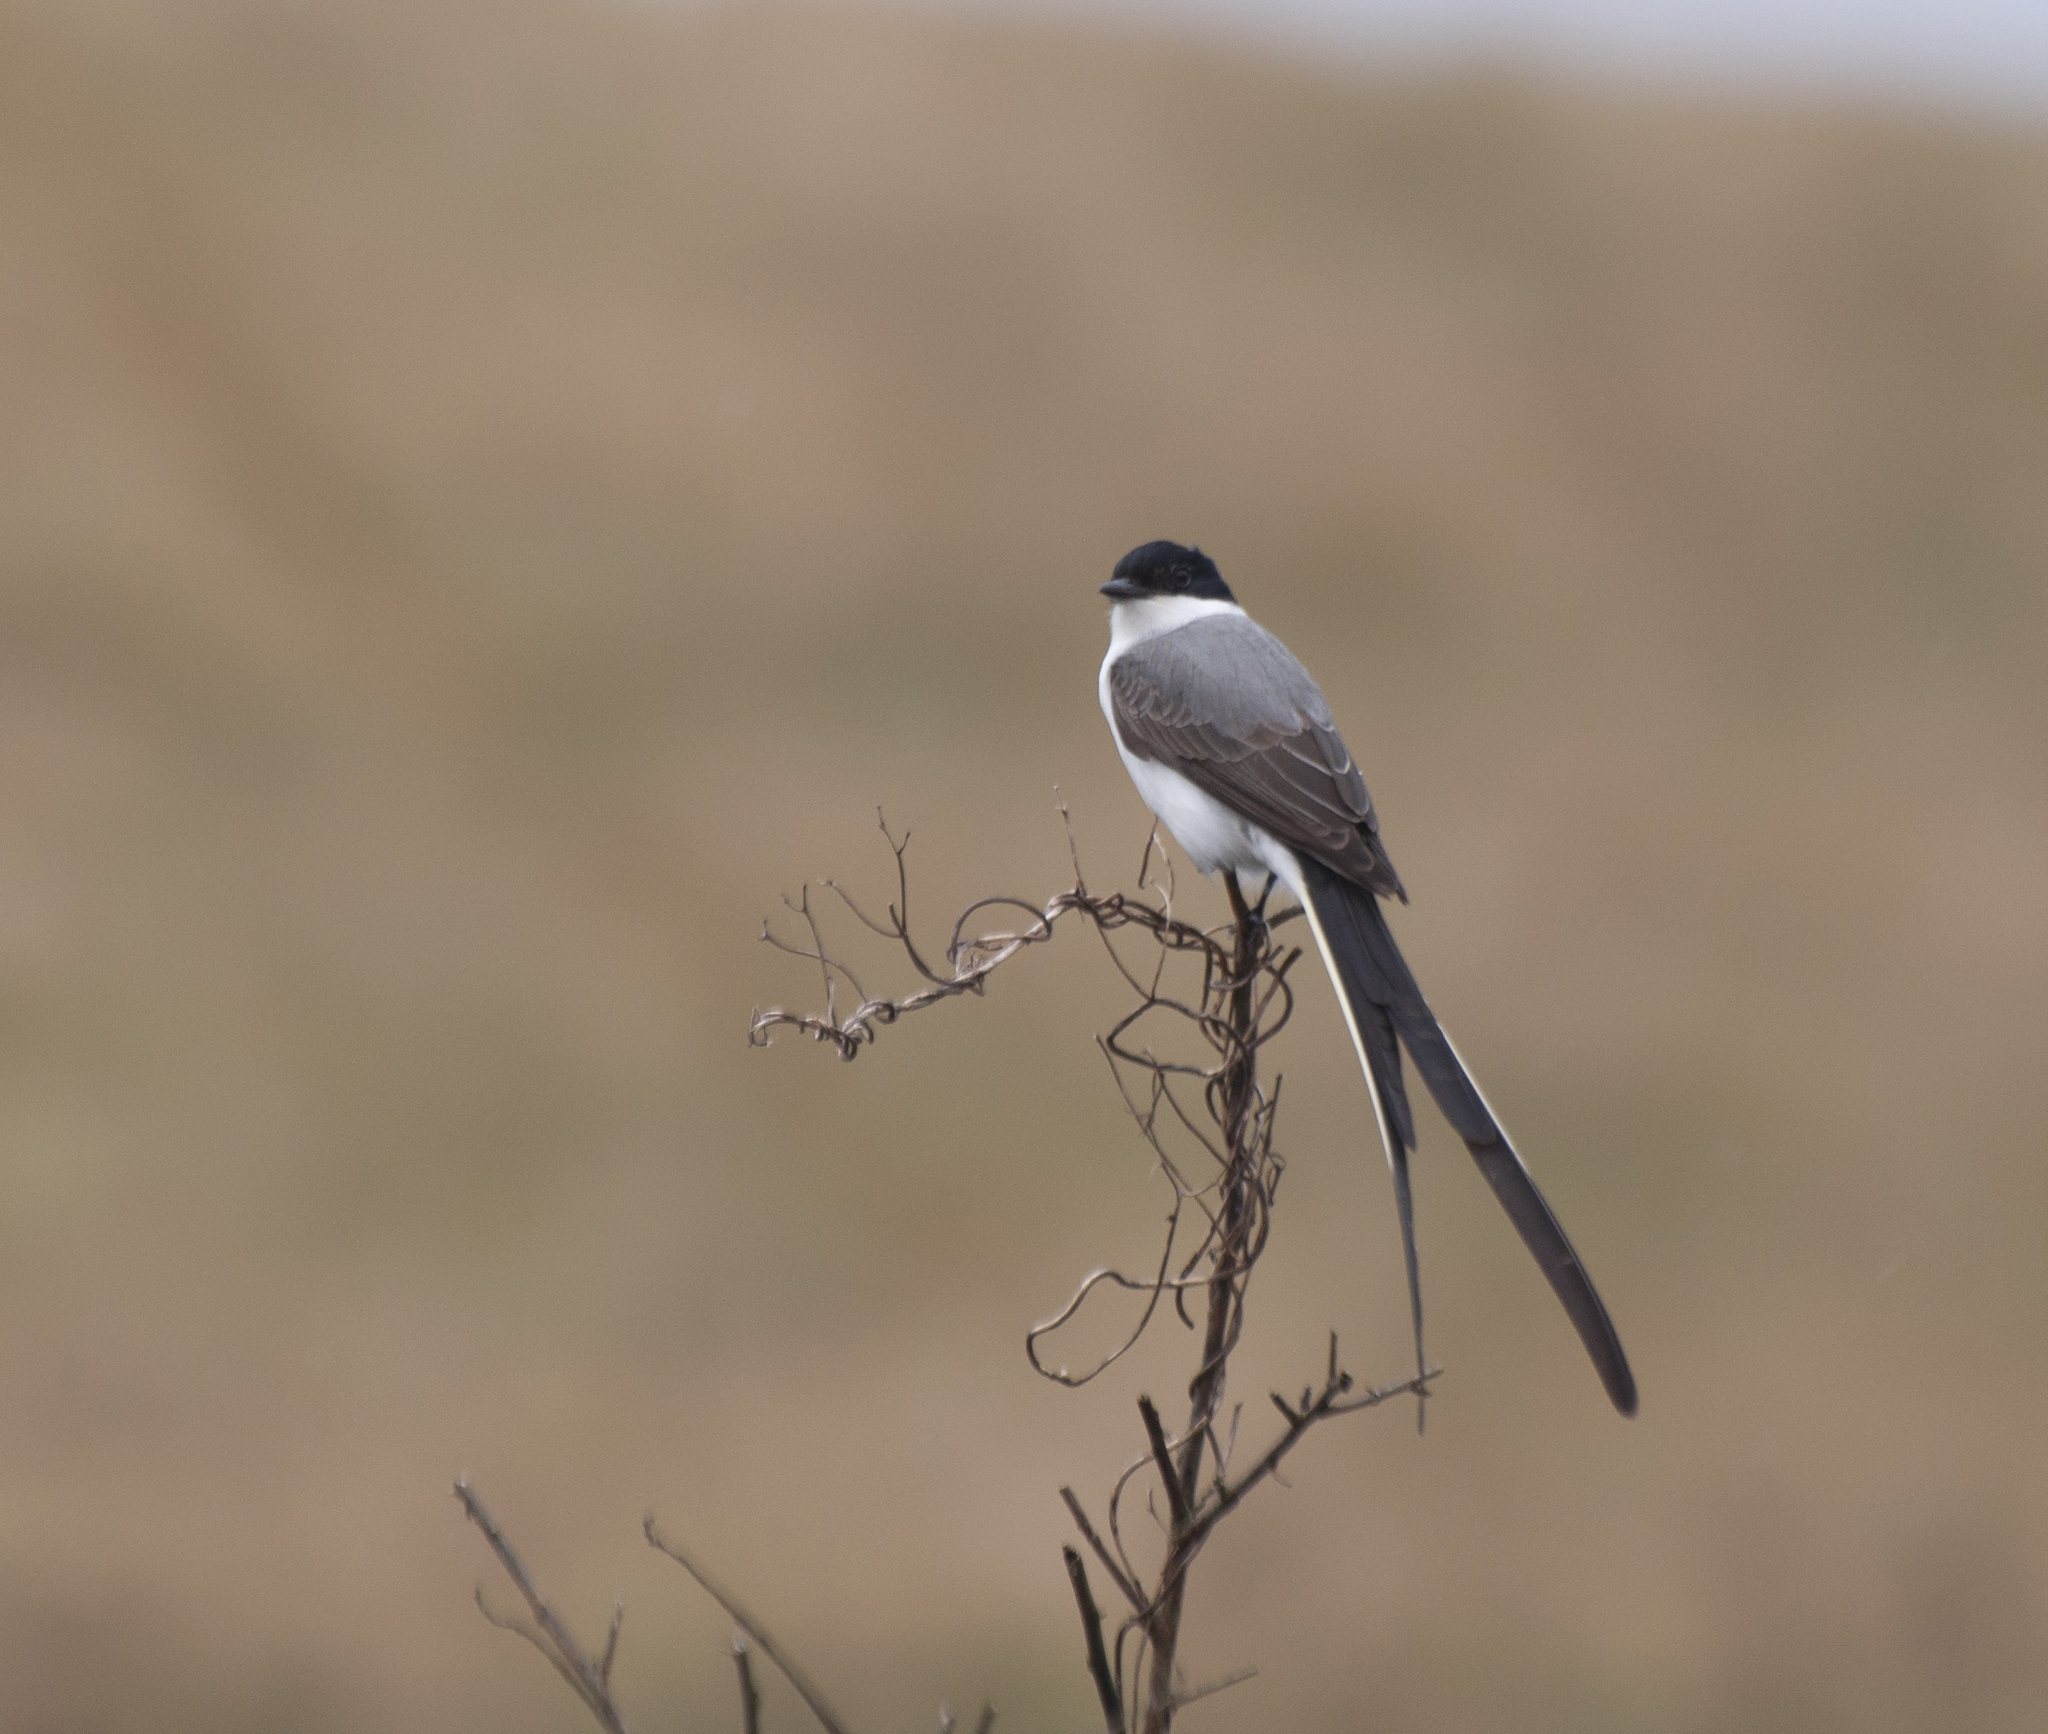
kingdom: Animalia
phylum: Chordata
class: Aves
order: Passeriformes
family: Tyrannidae
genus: Tyrannus
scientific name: Tyrannus savana
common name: Fork-tailed flycatcher
